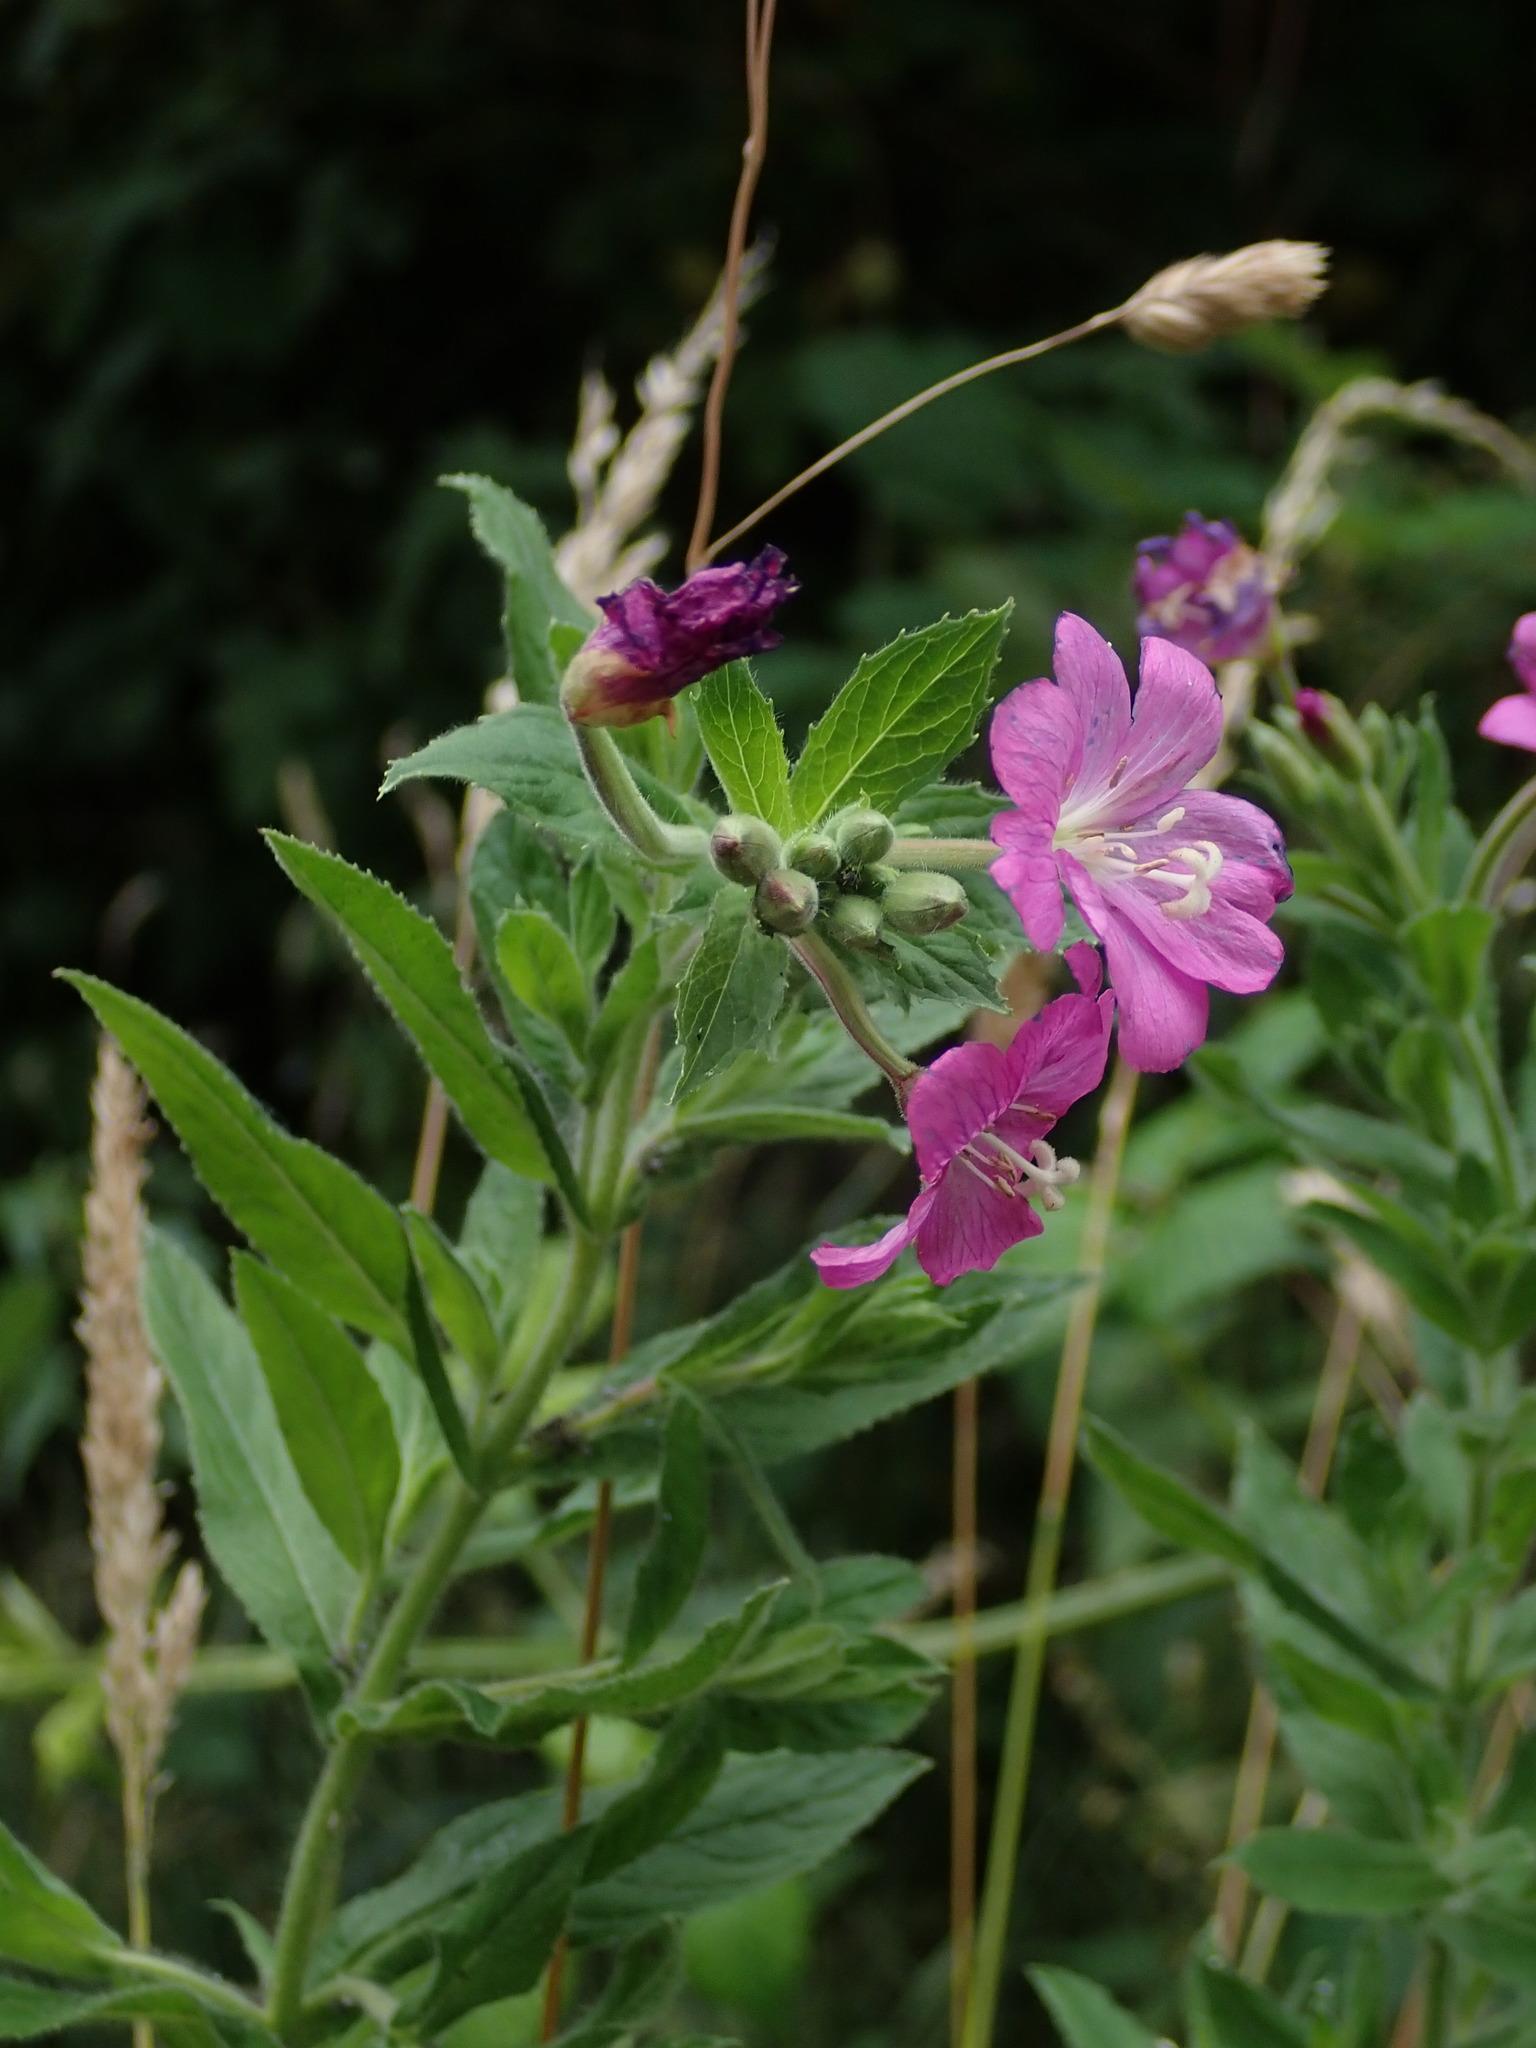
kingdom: Plantae
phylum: Tracheophyta
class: Magnoliopsida
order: Myrtales
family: Onagraceae
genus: Epilobium
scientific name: Epilobium hirsutum
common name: Great willowherb
